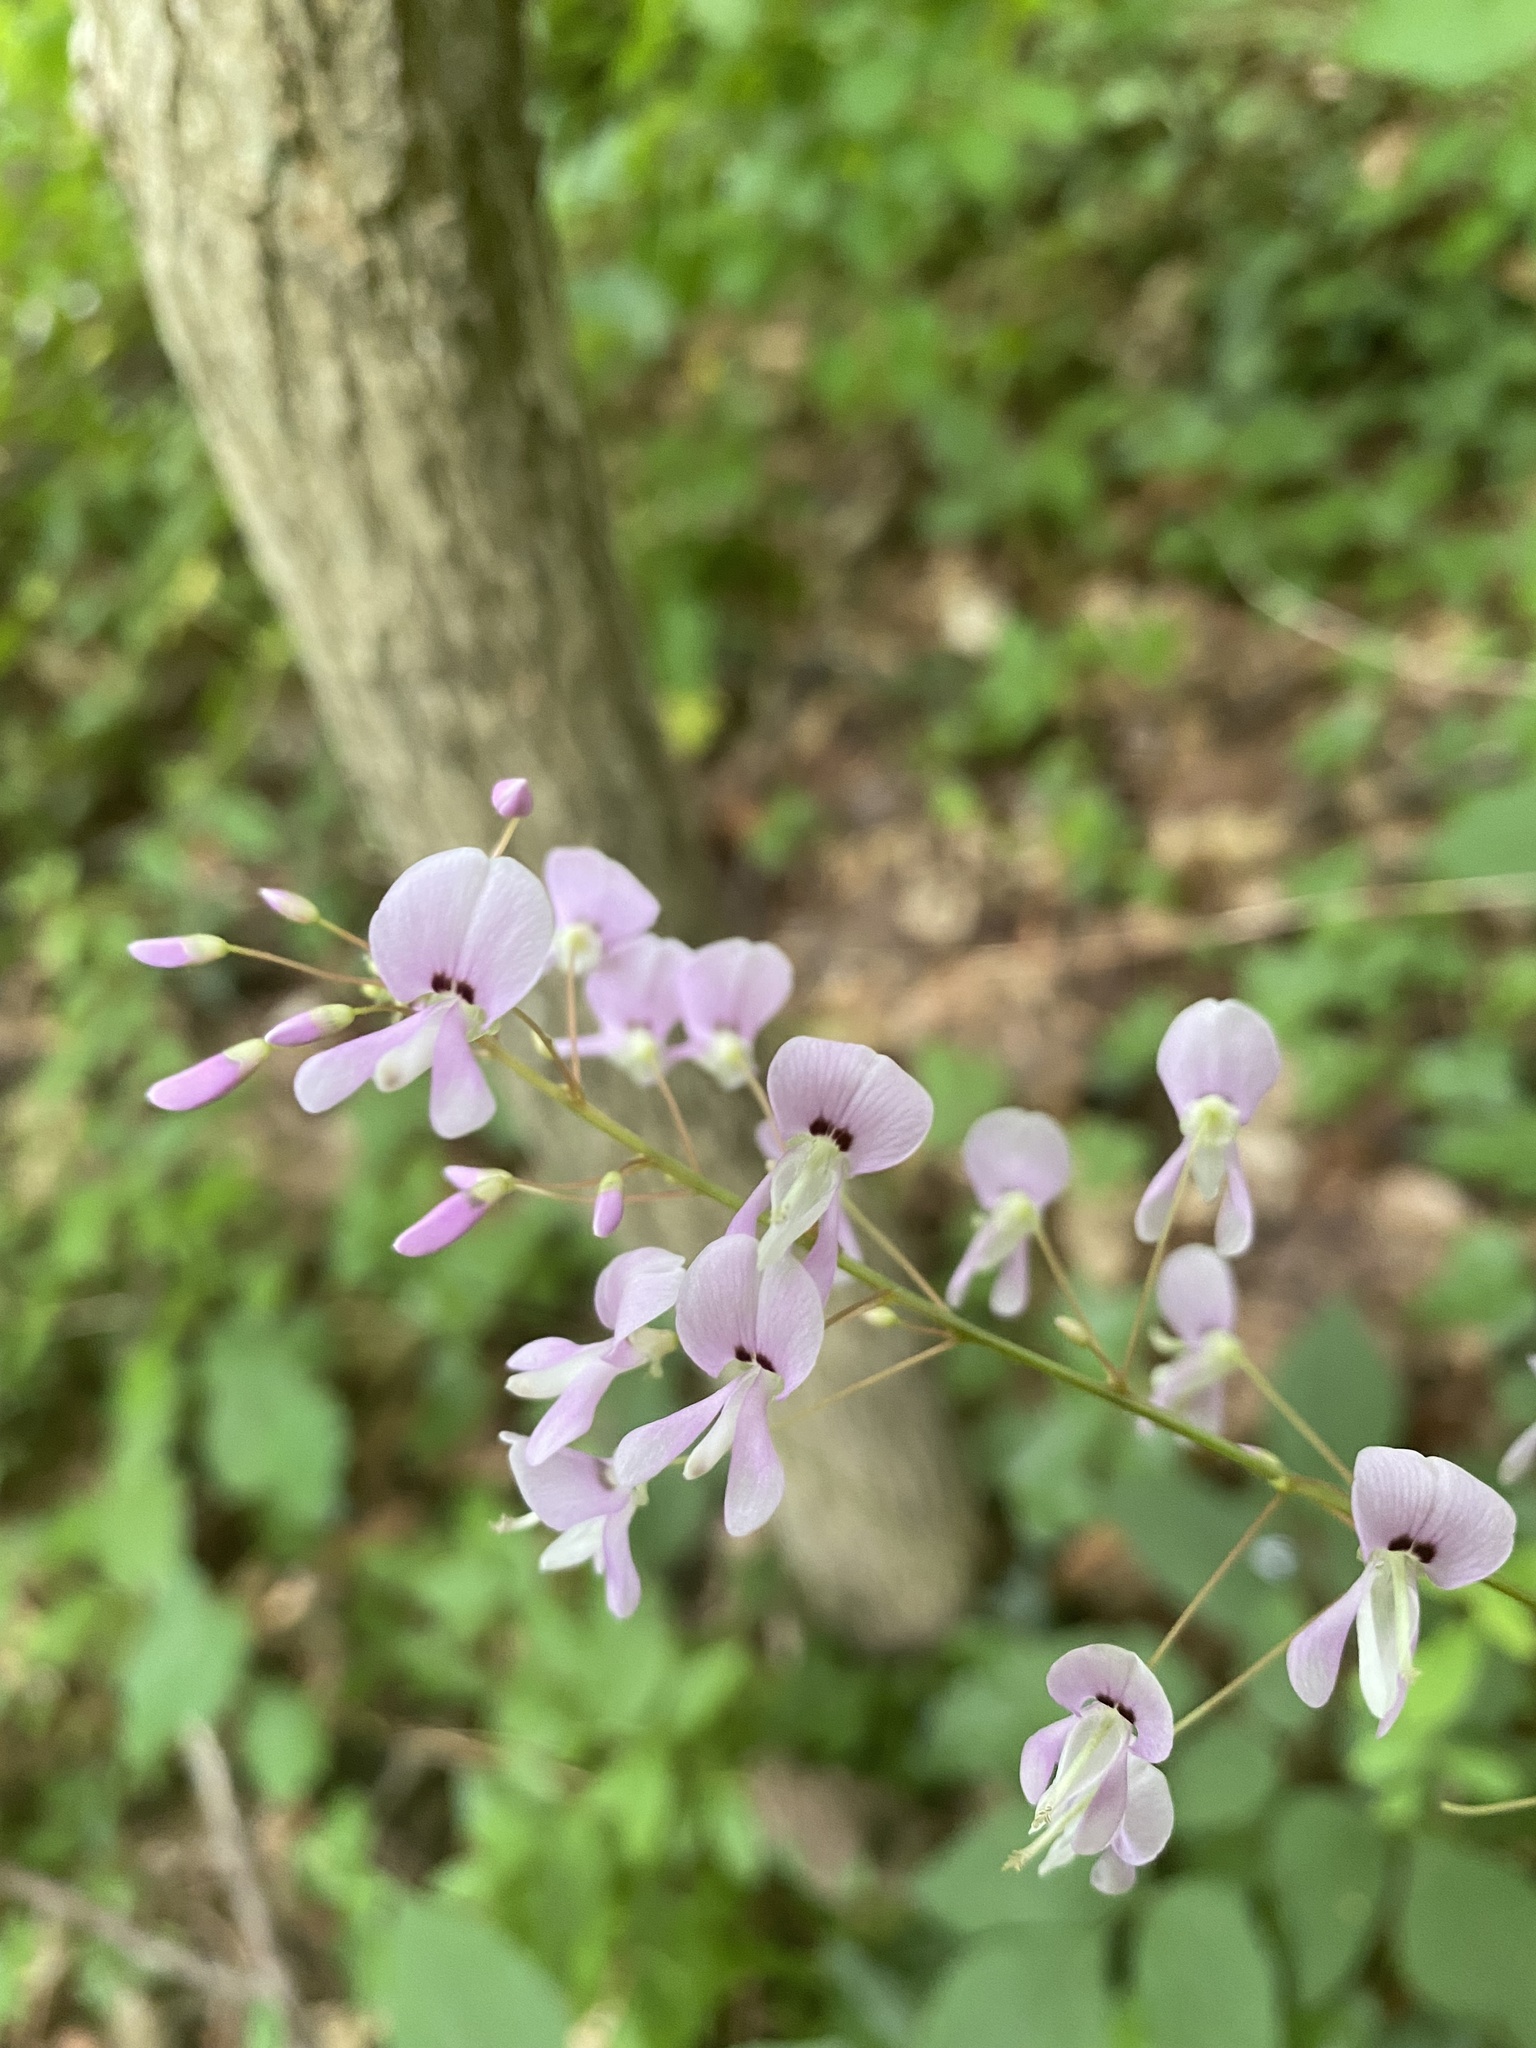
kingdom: Plantae
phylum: Tracheophyta
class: Magnoliopsida
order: Fabales
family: Fabaceae
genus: Hylodesmum
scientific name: Hylodesmum nudiflorum
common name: Bare-stemmed tick-trefoil
